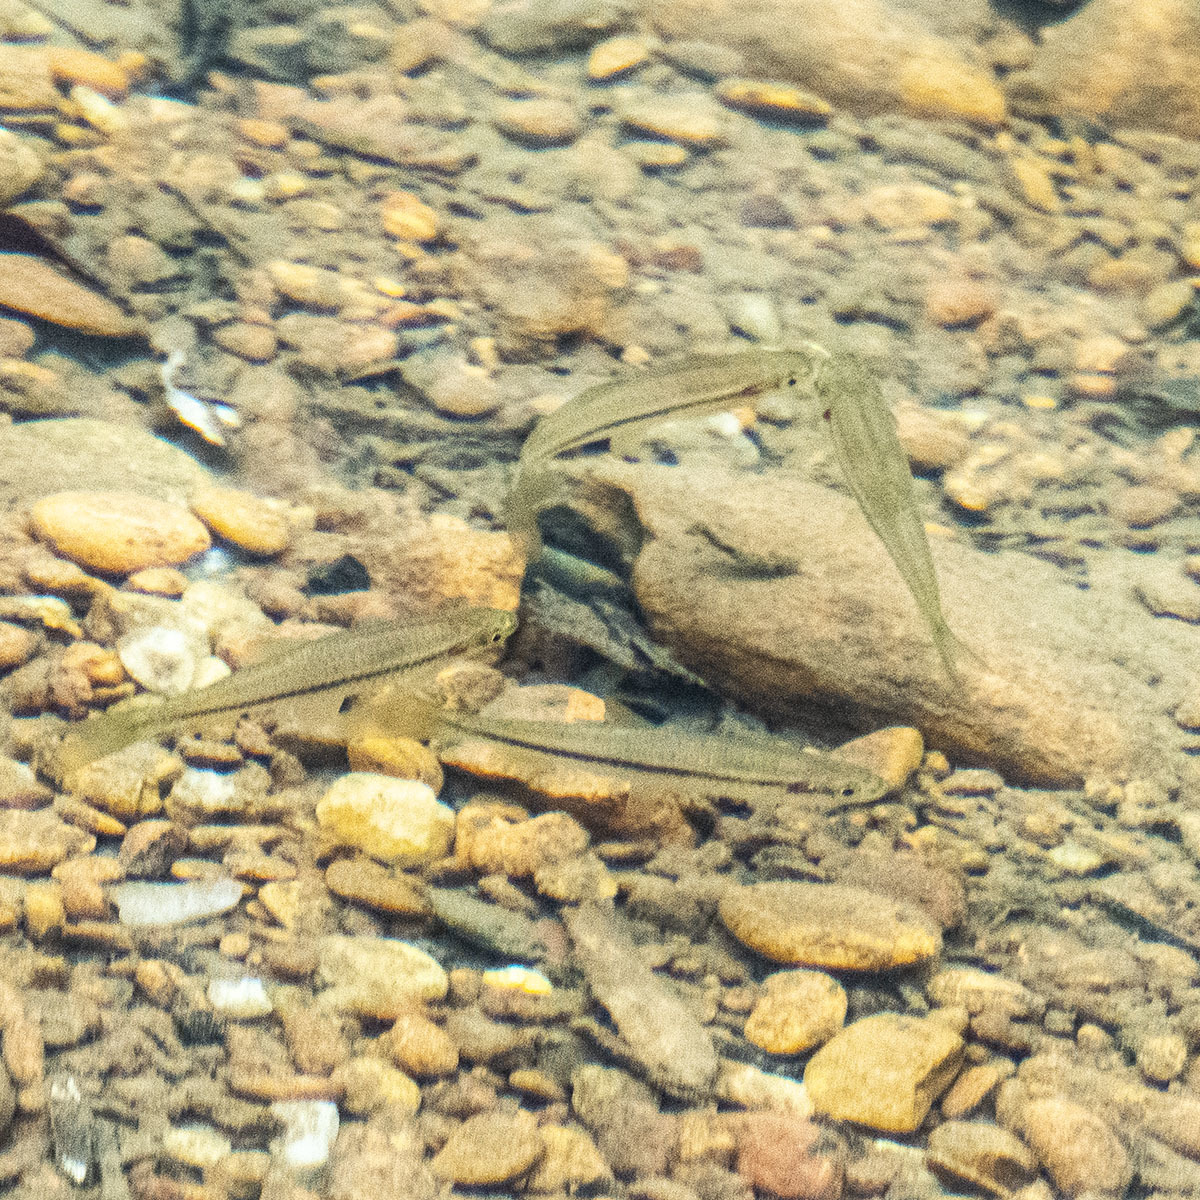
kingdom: Animalia
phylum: Chordata
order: Cypriniformes
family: Cyprinidae
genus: Rasbora
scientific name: Rasbora daniconius
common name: Common rasbora
